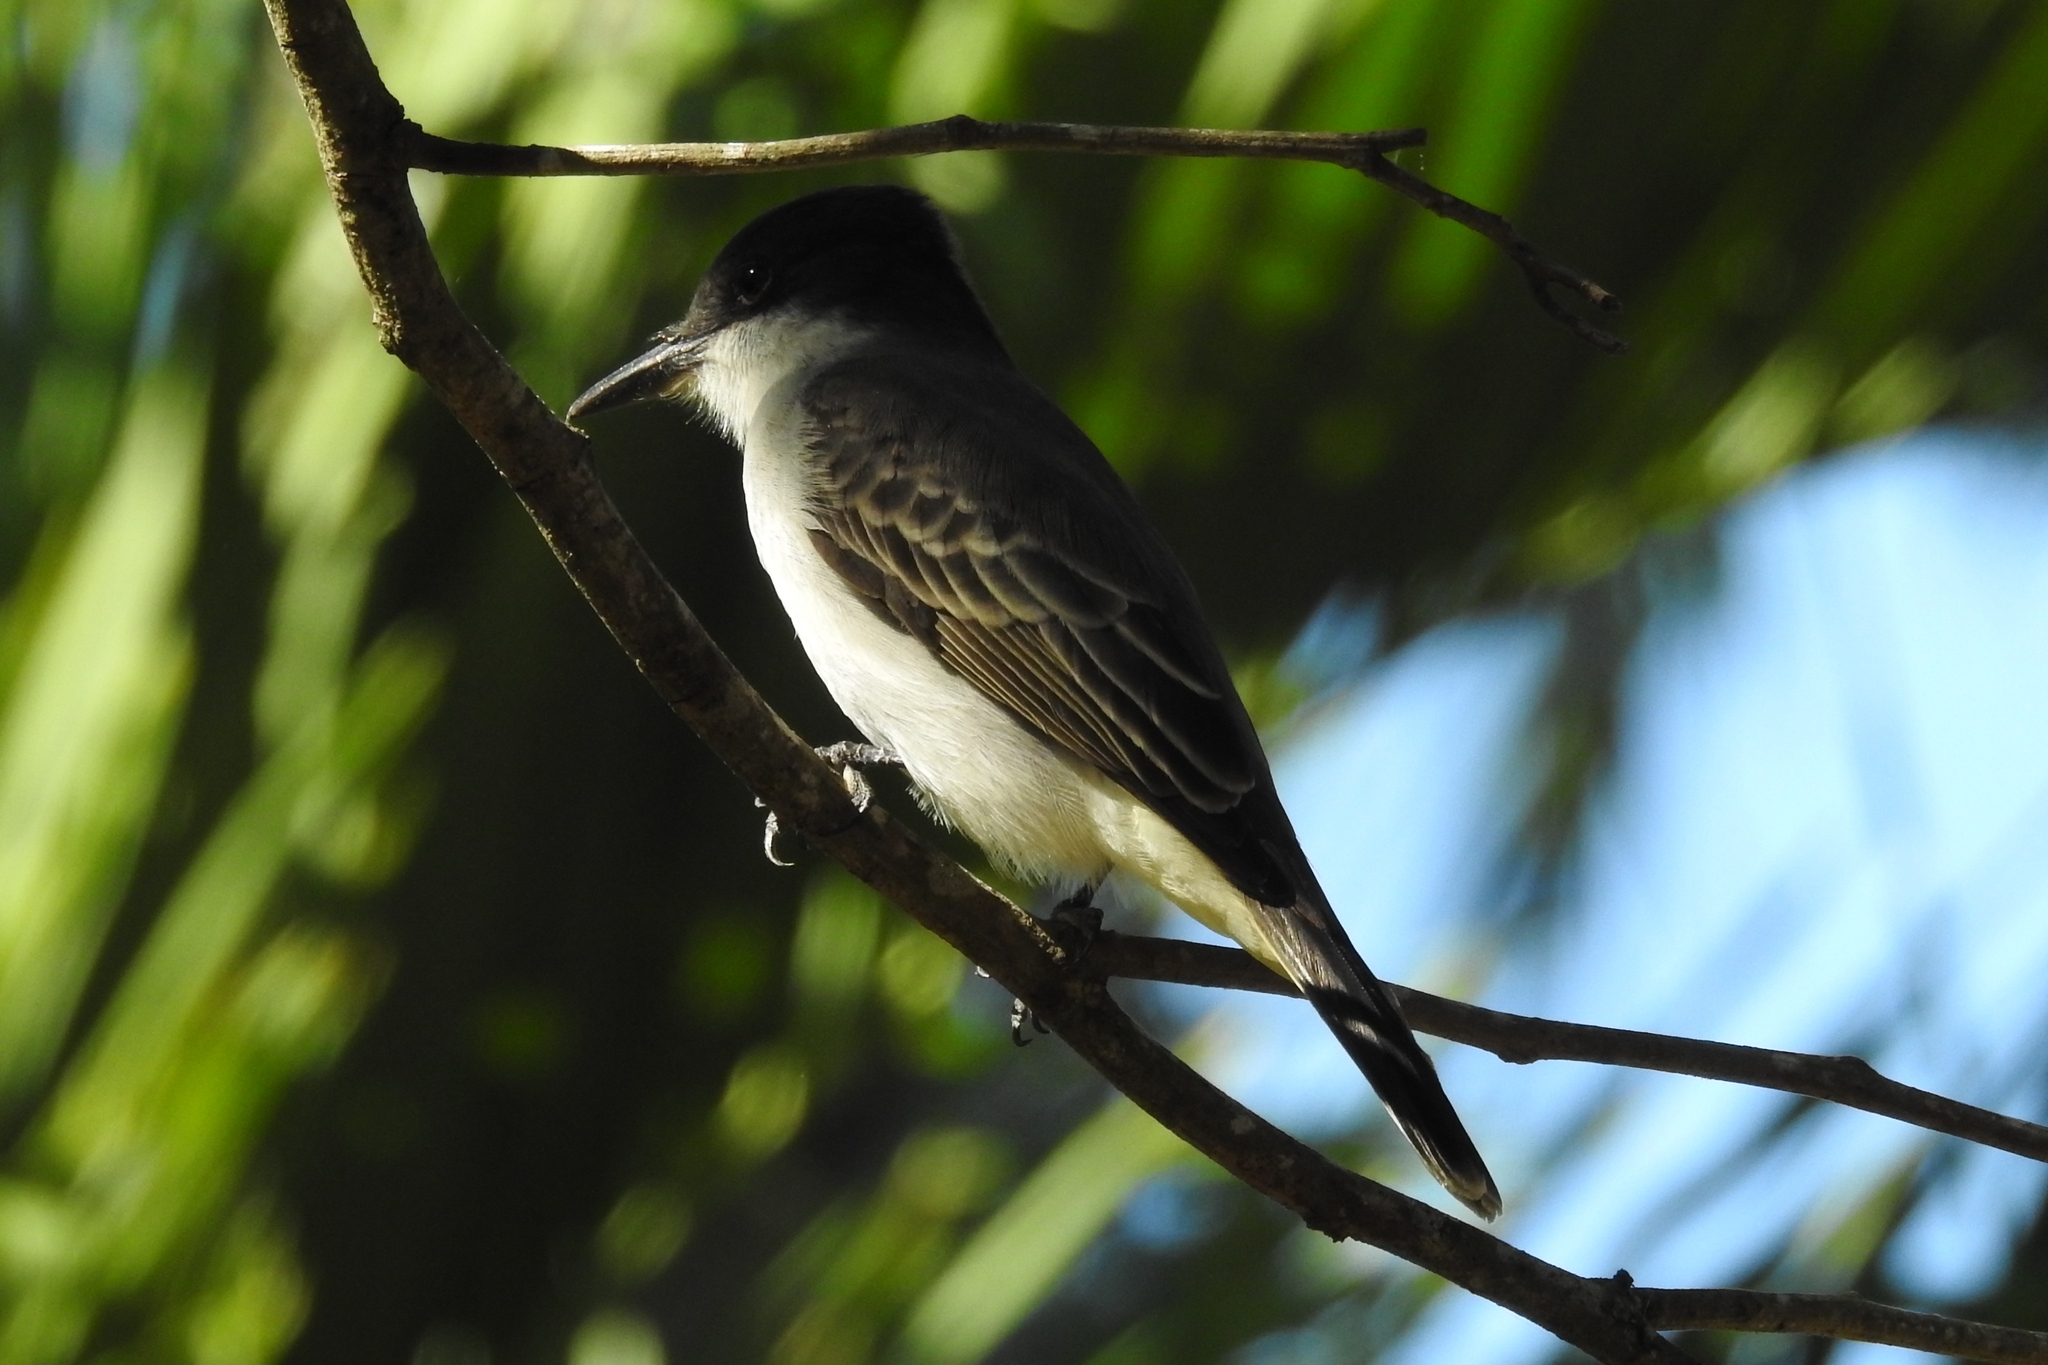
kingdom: Animalia
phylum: Chordata
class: Aves
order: Passeriformes
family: Tyrannidae
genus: Tyrannus
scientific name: Tyrannus caudifasciatus
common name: Loggerhead kingbird
